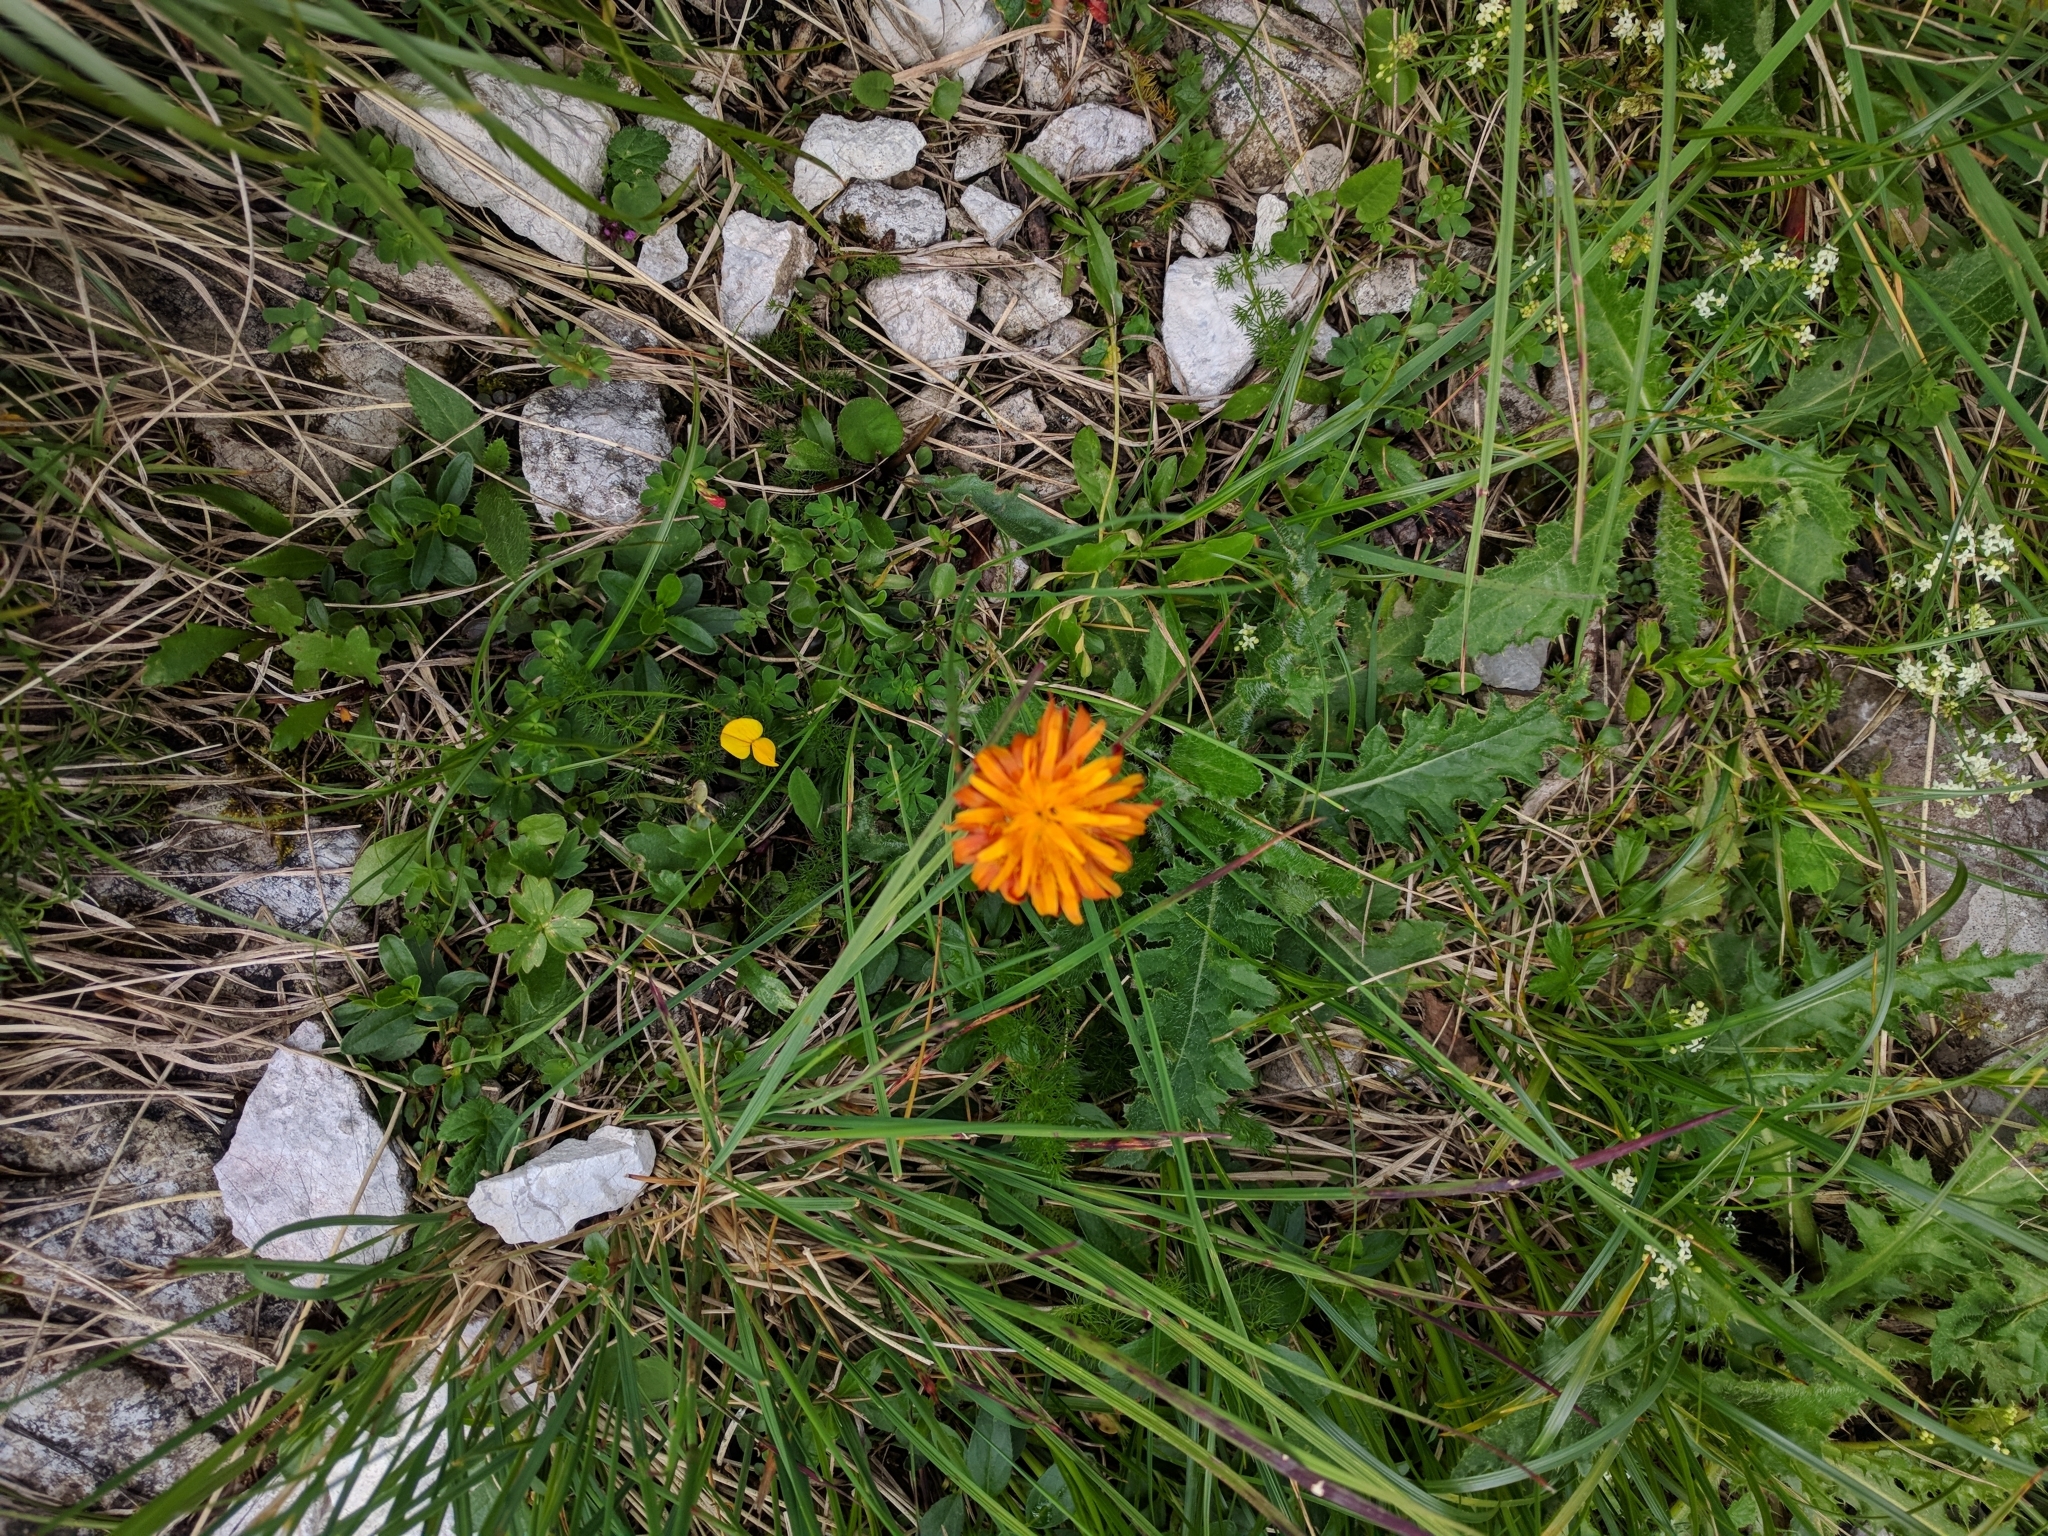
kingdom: Plantae
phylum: Tracheophyta
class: Magnoliopsida
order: Asterales
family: Asteraceae
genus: Crepis
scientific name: Crepis aurea
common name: Golden hawk's-beard
